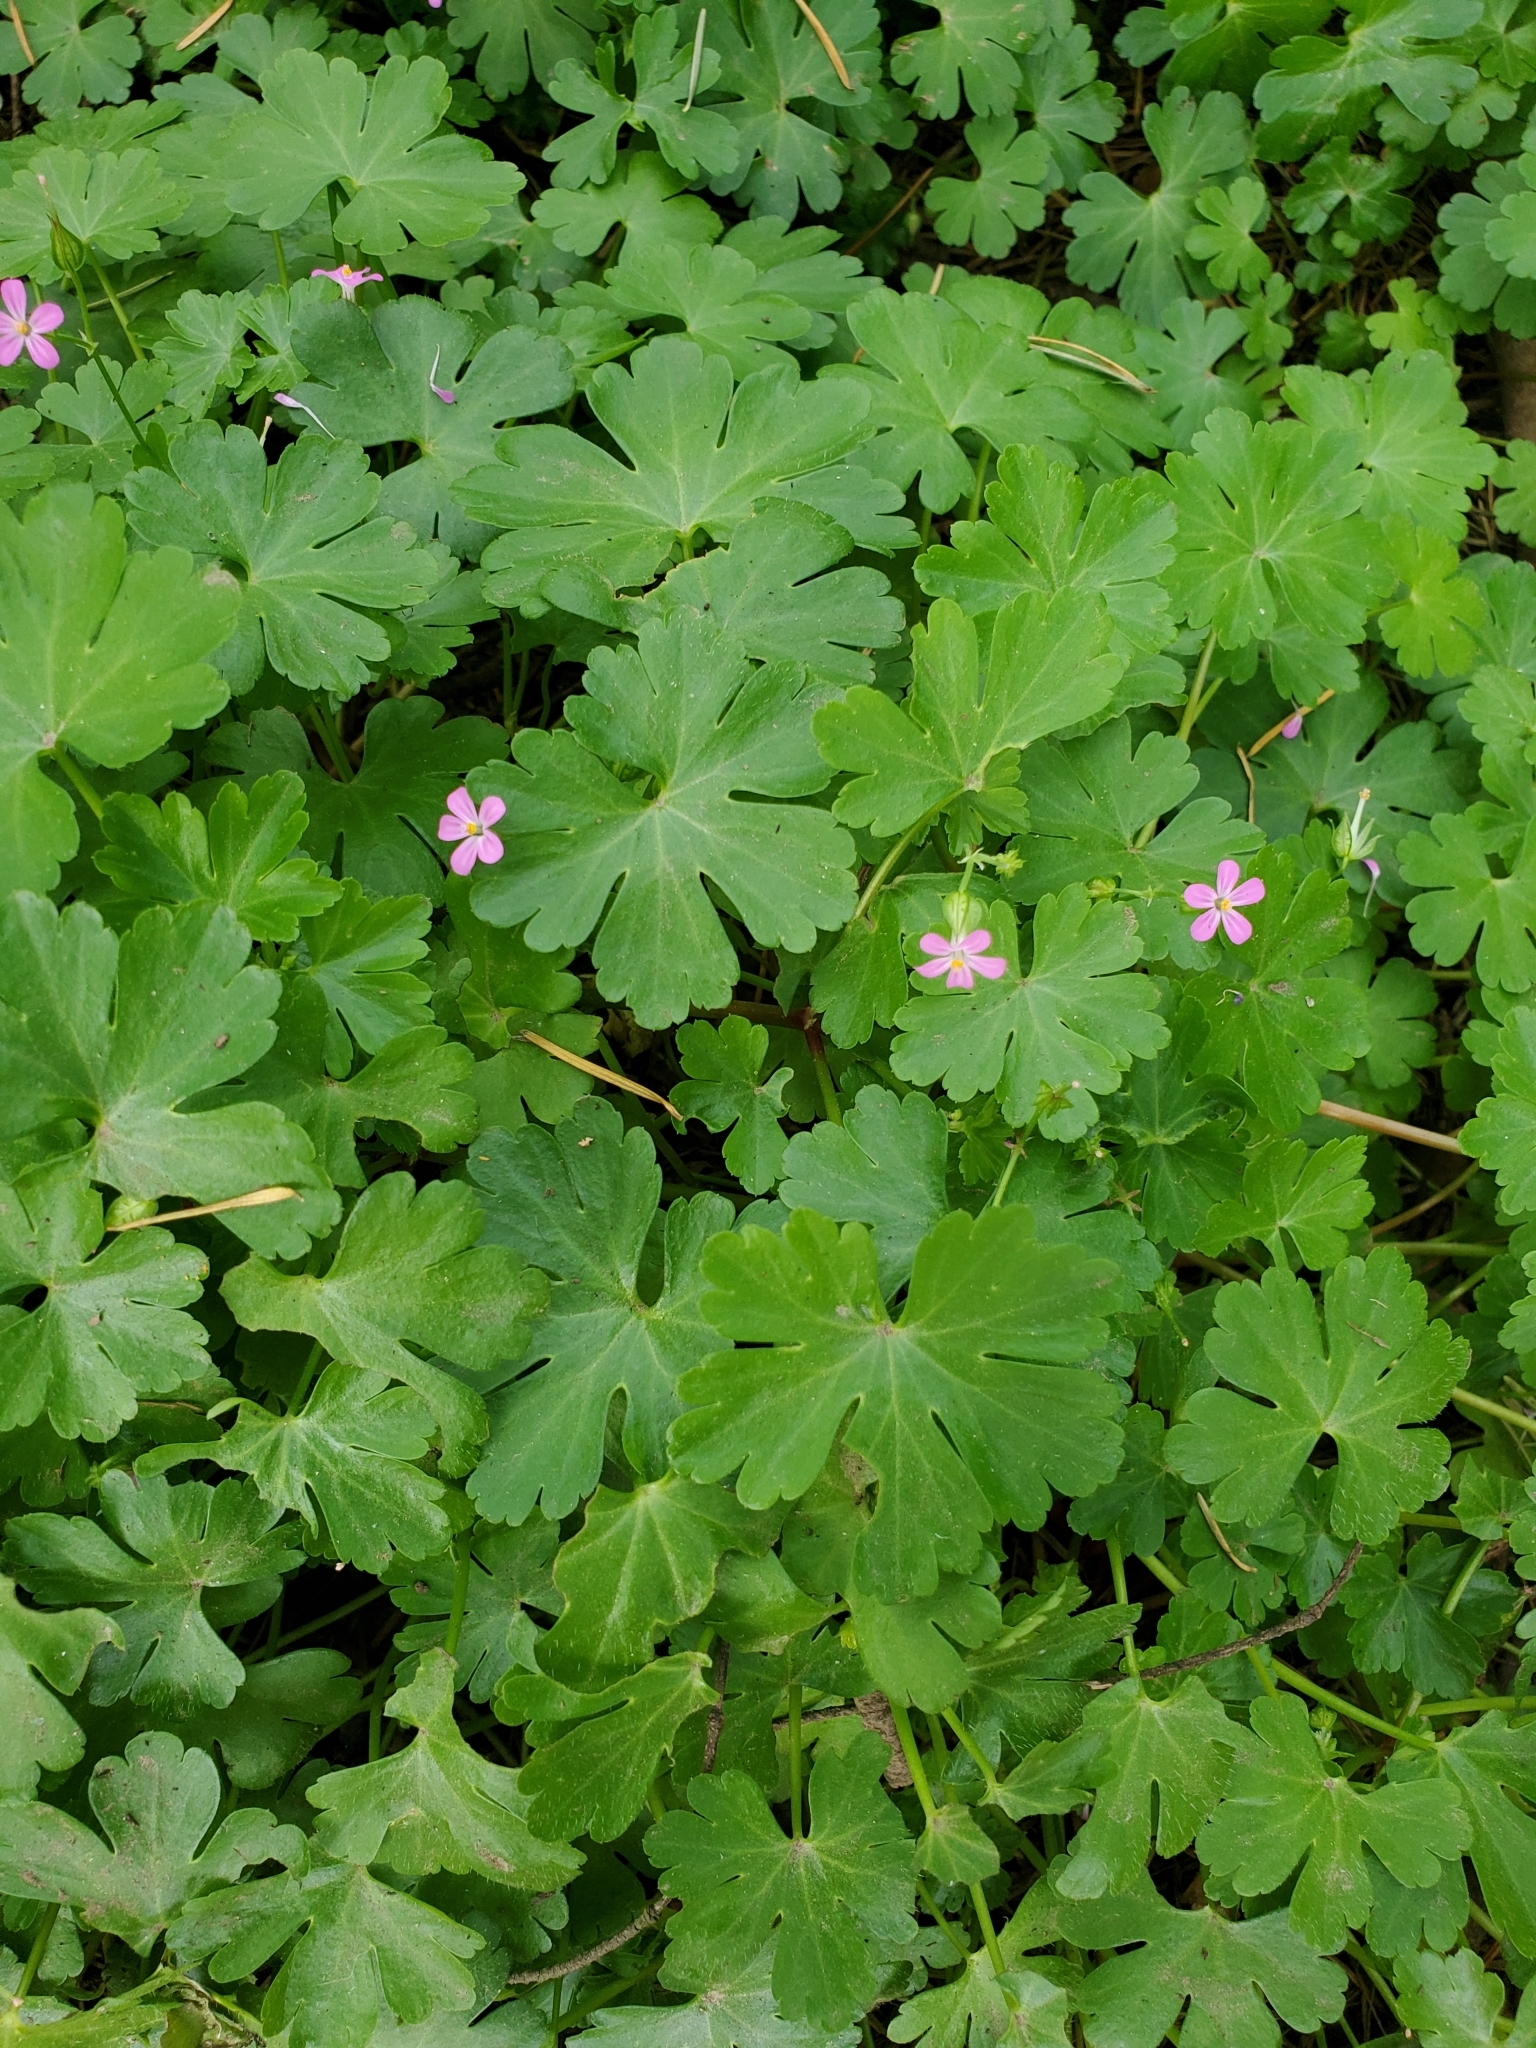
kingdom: Plantae
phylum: Tracheophyta
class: Magnoliopsida
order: Geraniales
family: Geraniaceae
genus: Geranium
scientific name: Geranium lucidum
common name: Shining crane's-bill
